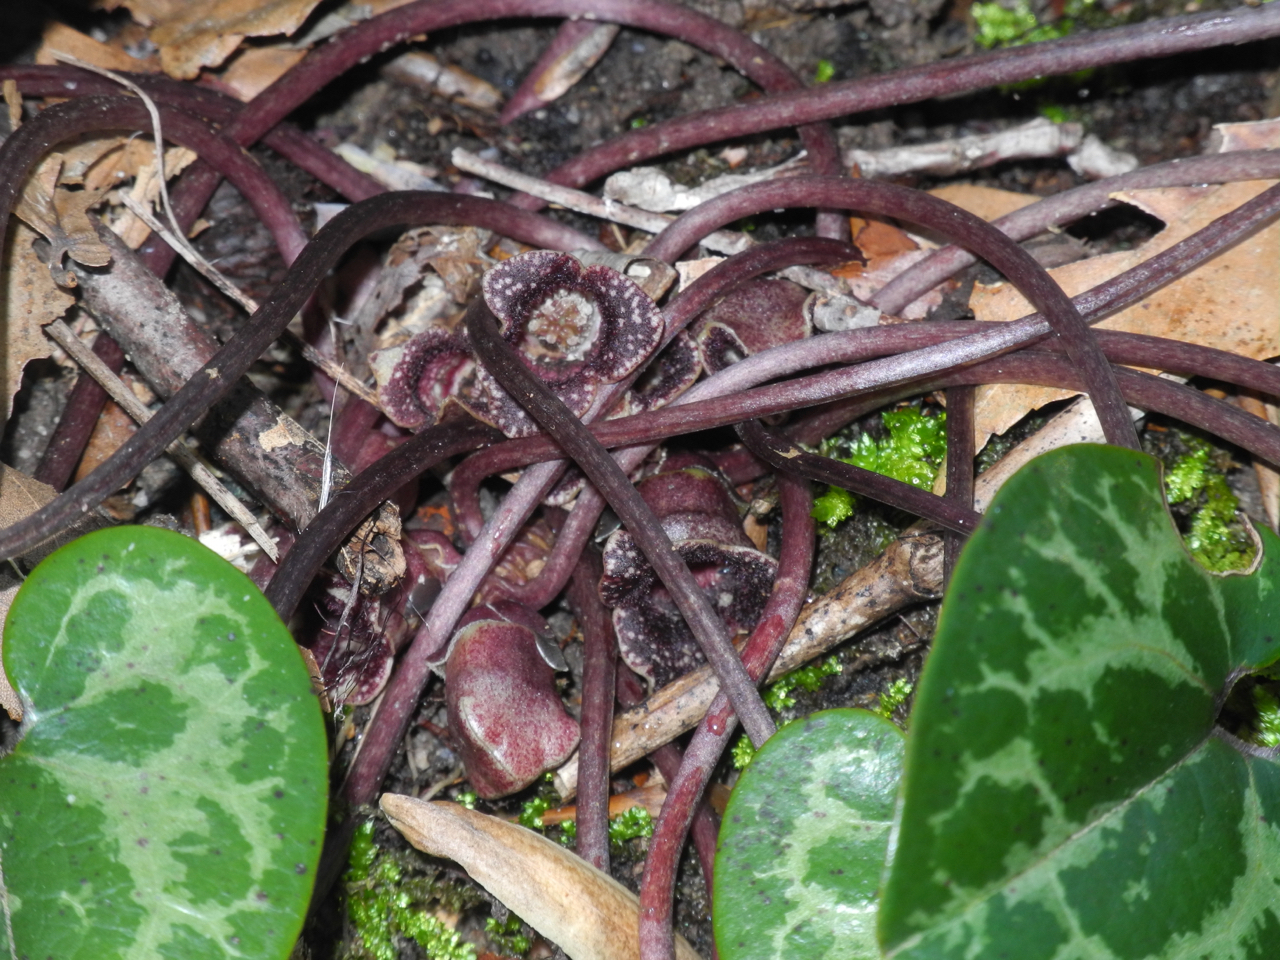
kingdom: Plantae
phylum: Tracheophyta
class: Magnoliopsida
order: Piperales
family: Aristolochiaceae
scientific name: Aristolochiaceae
